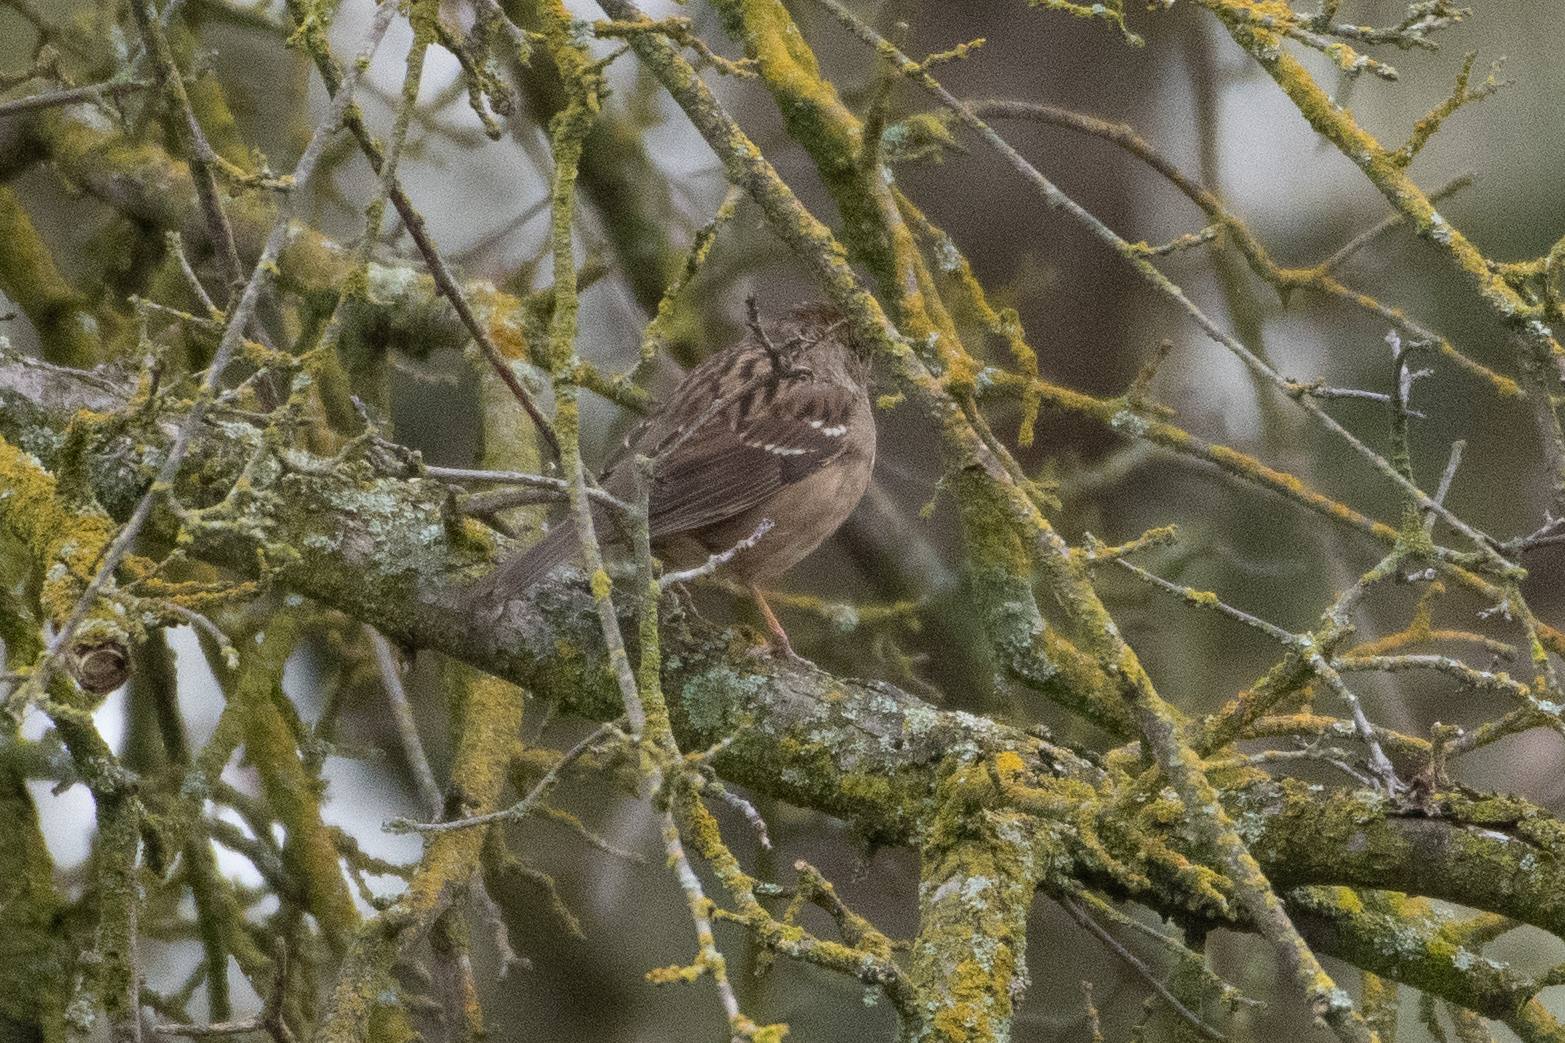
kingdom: Animalia
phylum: Chordata
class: Aves
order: Passeriformes
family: Passerellidae
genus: Zonotrichia
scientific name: Zonotrichia atricapilla
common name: Golden-crowned sparrow
